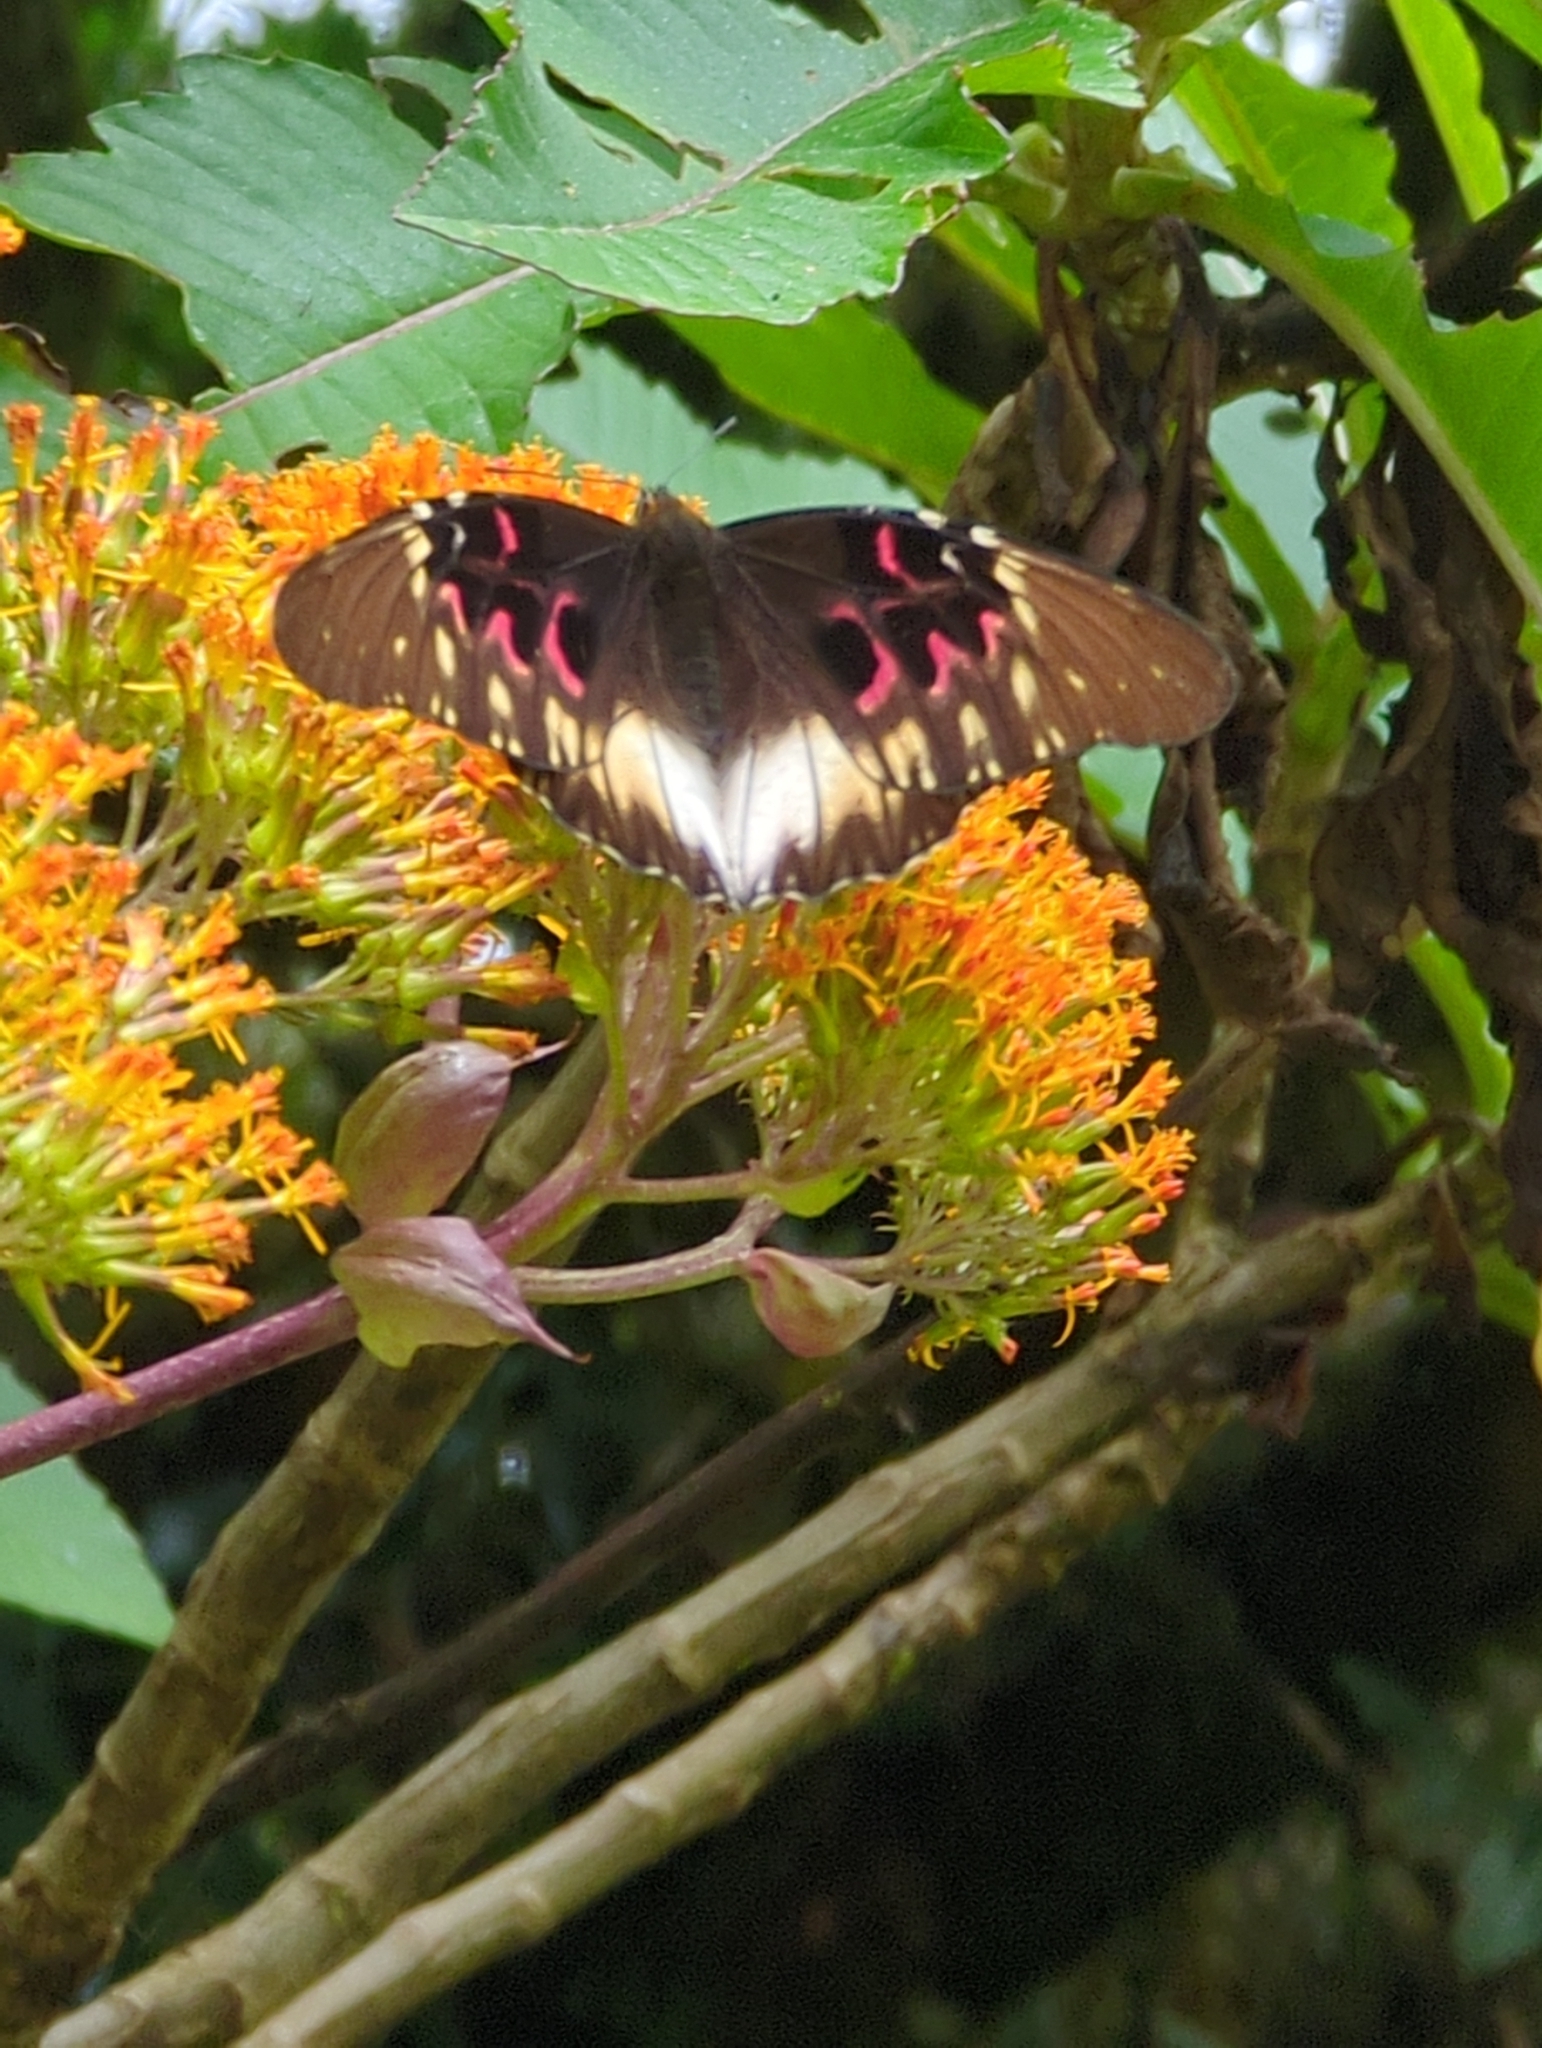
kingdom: Animalia
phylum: Arthropoda
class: Insecta
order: Lepidoptera
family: Nymphalidae
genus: Anetia
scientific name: Anetia thirza
